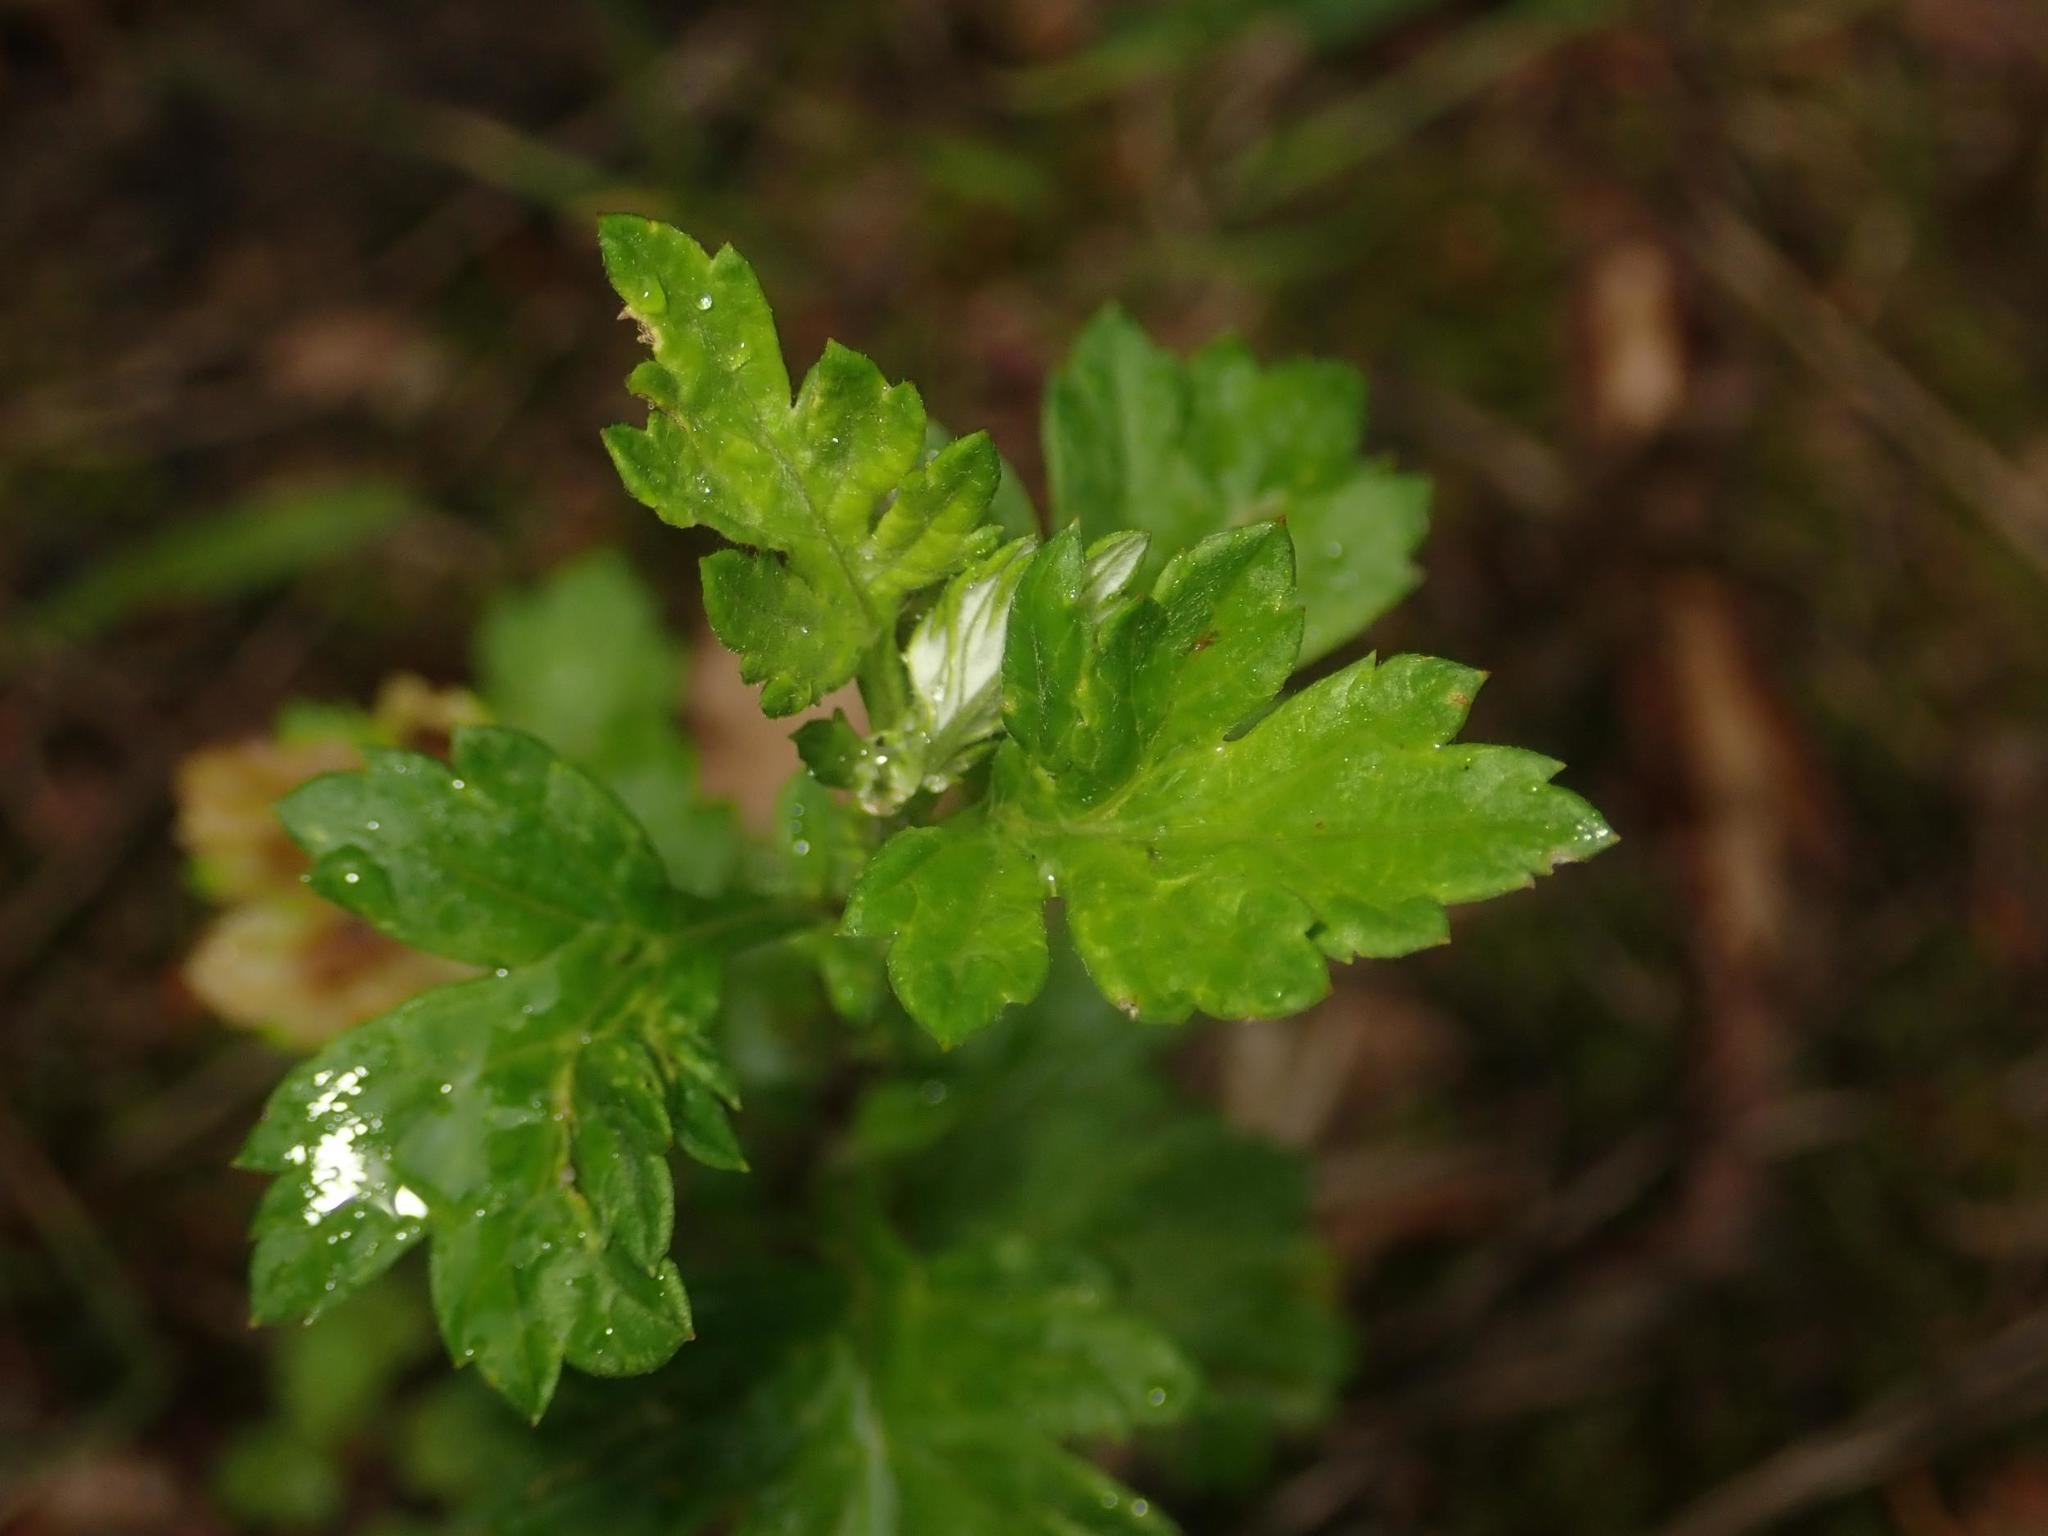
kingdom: Plantae
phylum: Tracheophyta
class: Magnoliopsida
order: Asterales
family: Asteraceae
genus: Artemisia
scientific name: Artemisia vulgaris
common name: Mugwort
